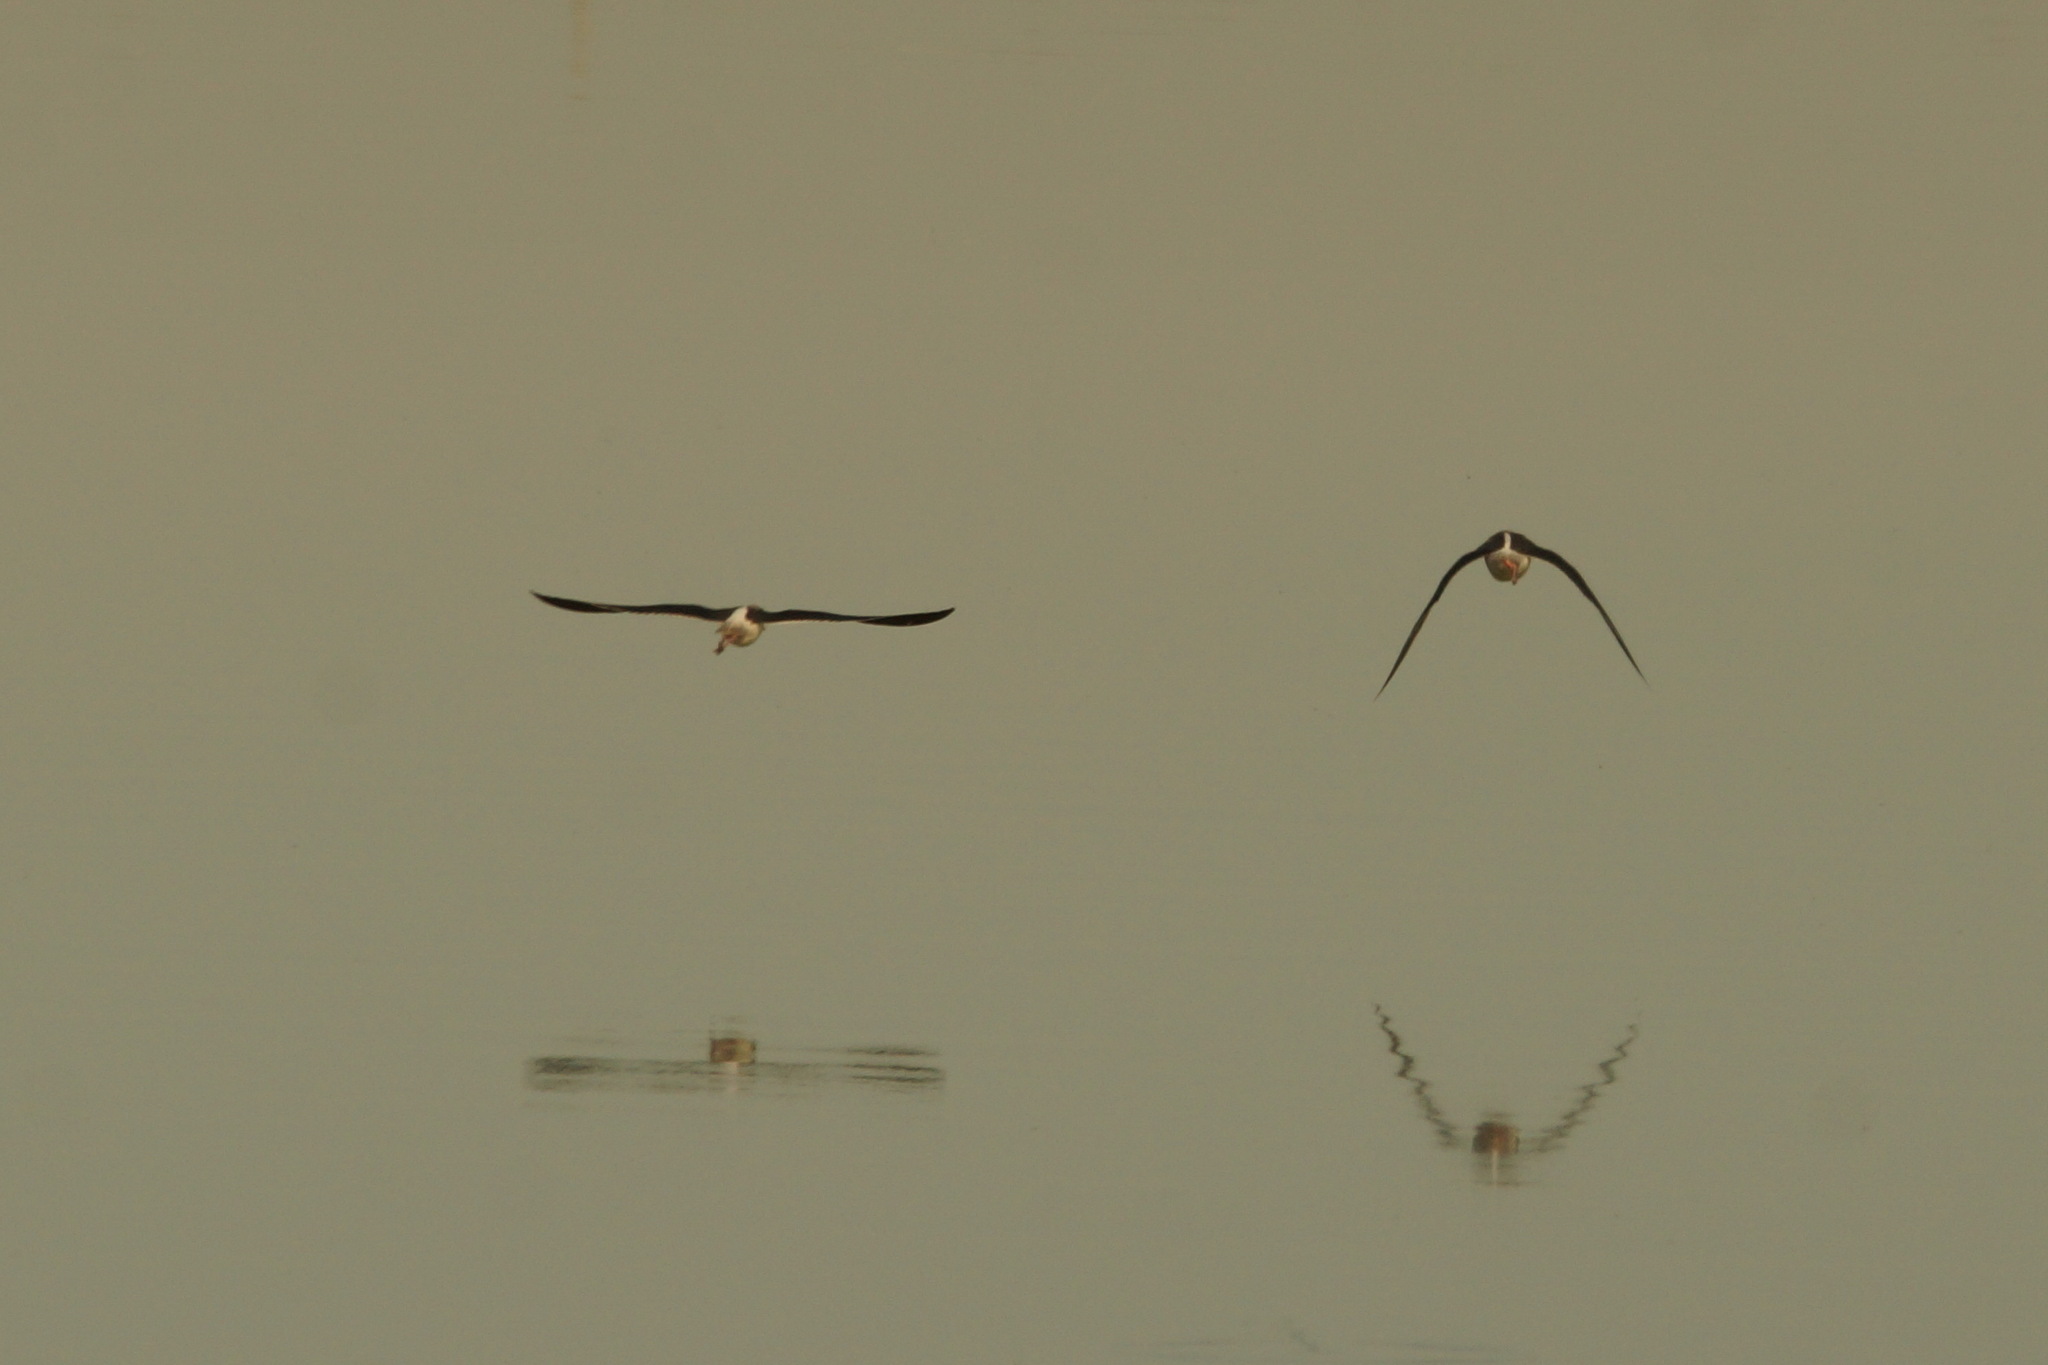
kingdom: Animalia
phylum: Chordata
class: Aves
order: Charadriiformes
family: Recurvirostridae
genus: Himantopus
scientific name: Himantopus himantopus
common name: Black-winged stilt
